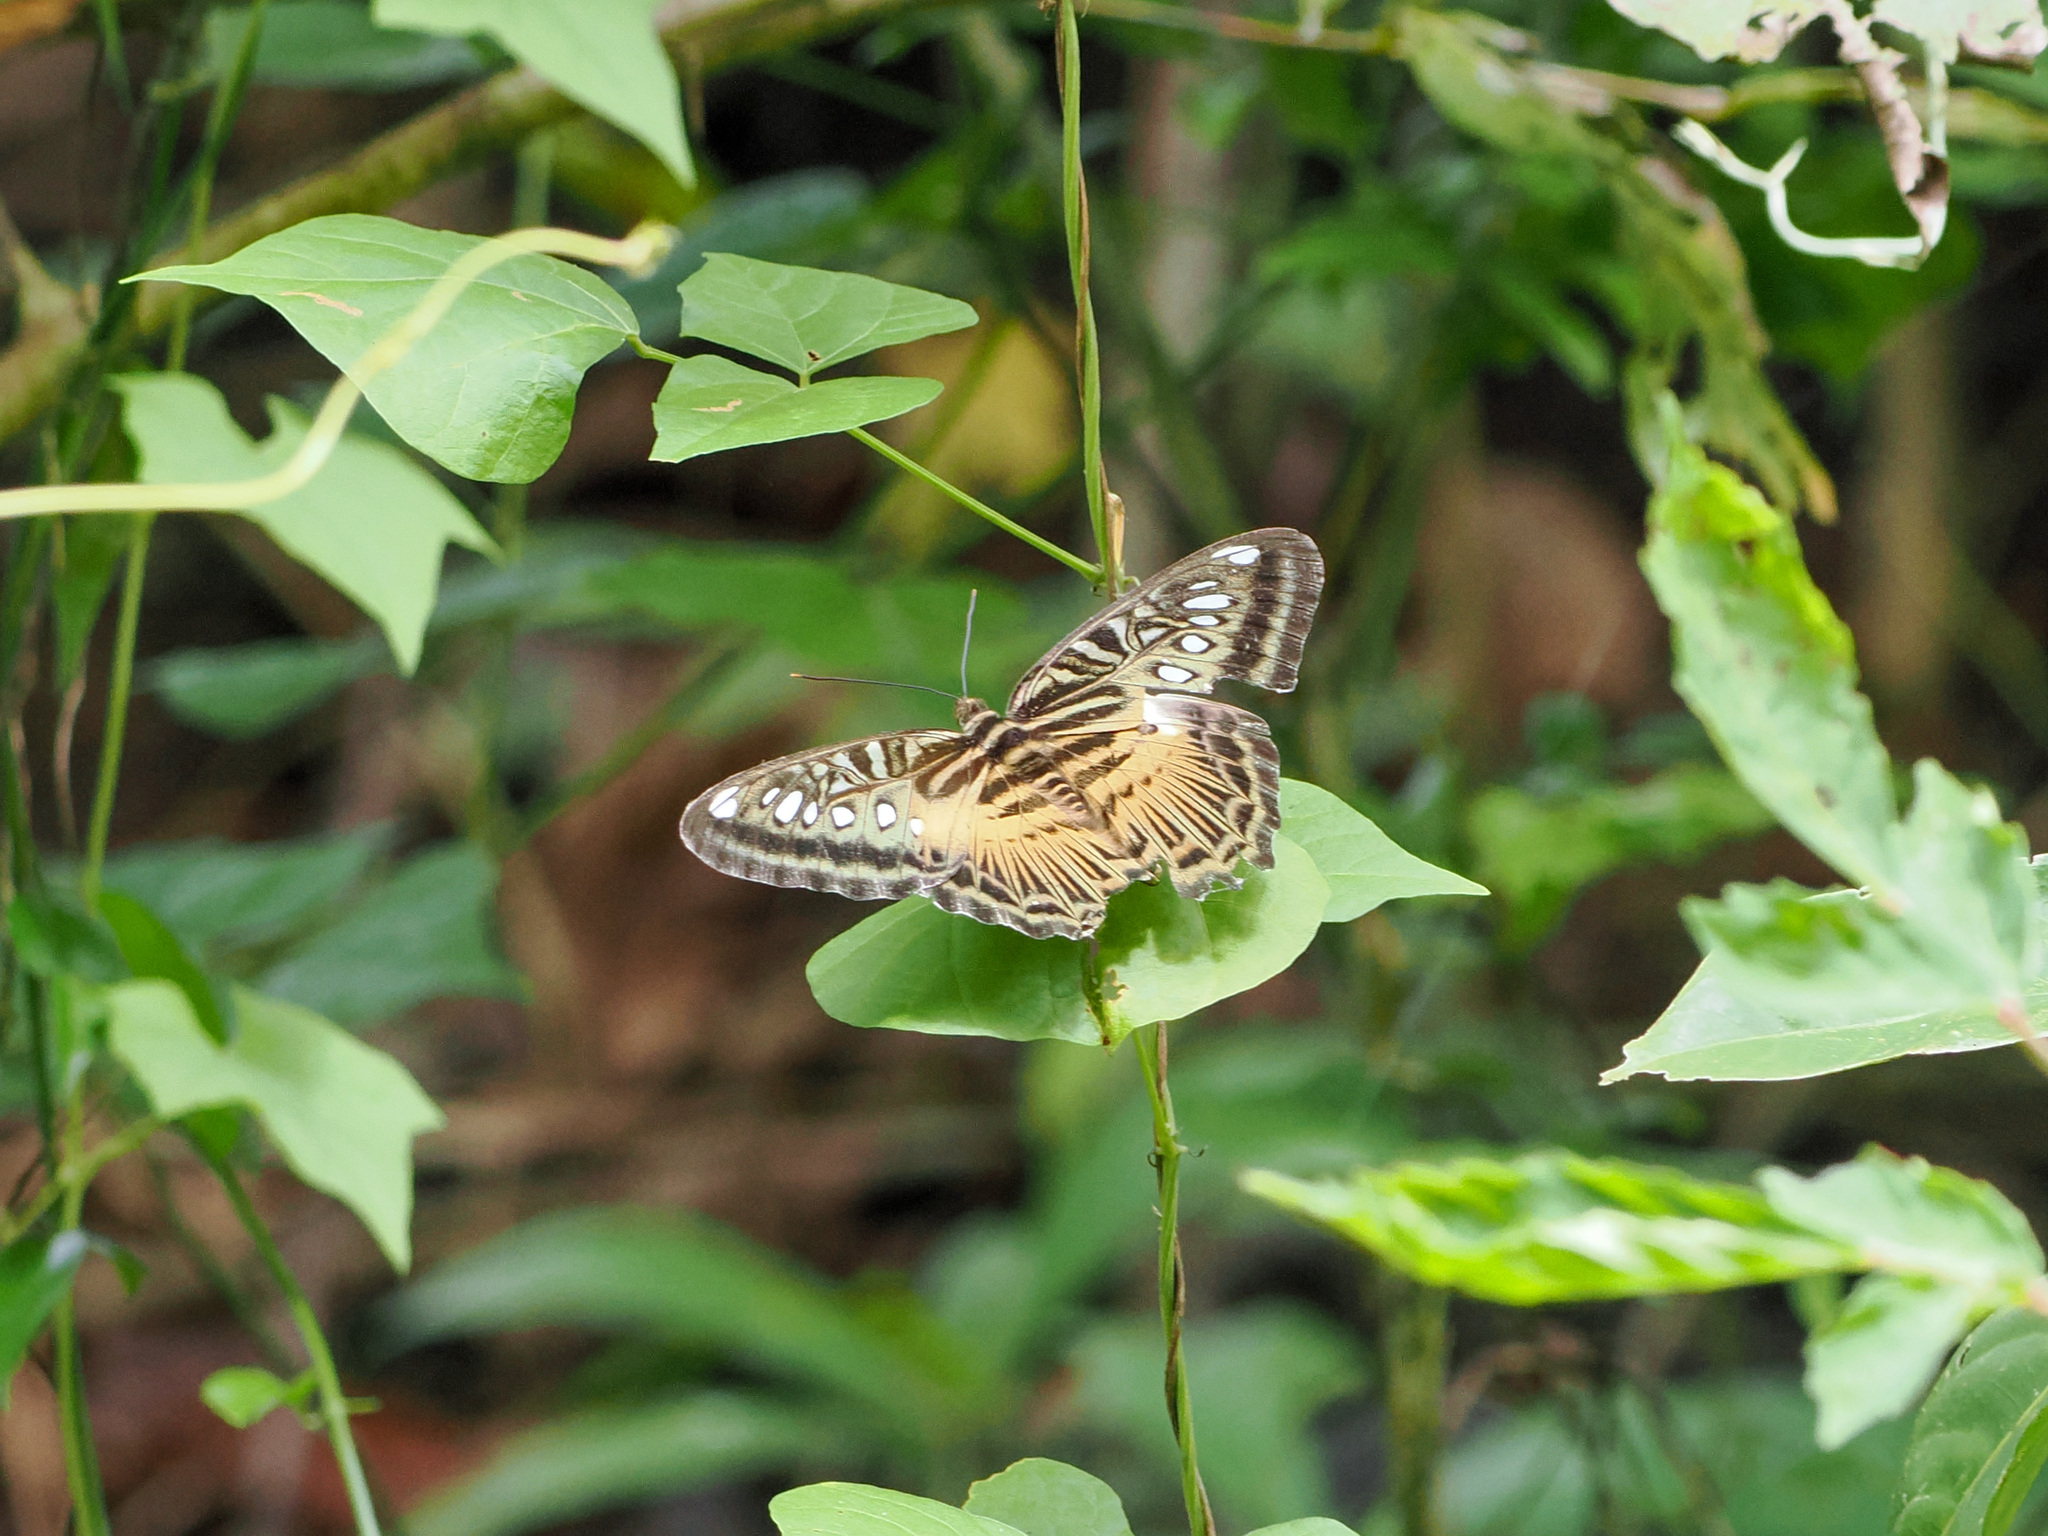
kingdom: Animalia
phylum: Arthropoda
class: Insecta
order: Lepidoptera
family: Nymphalidae
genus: Kallima
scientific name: Kallima sylvia
